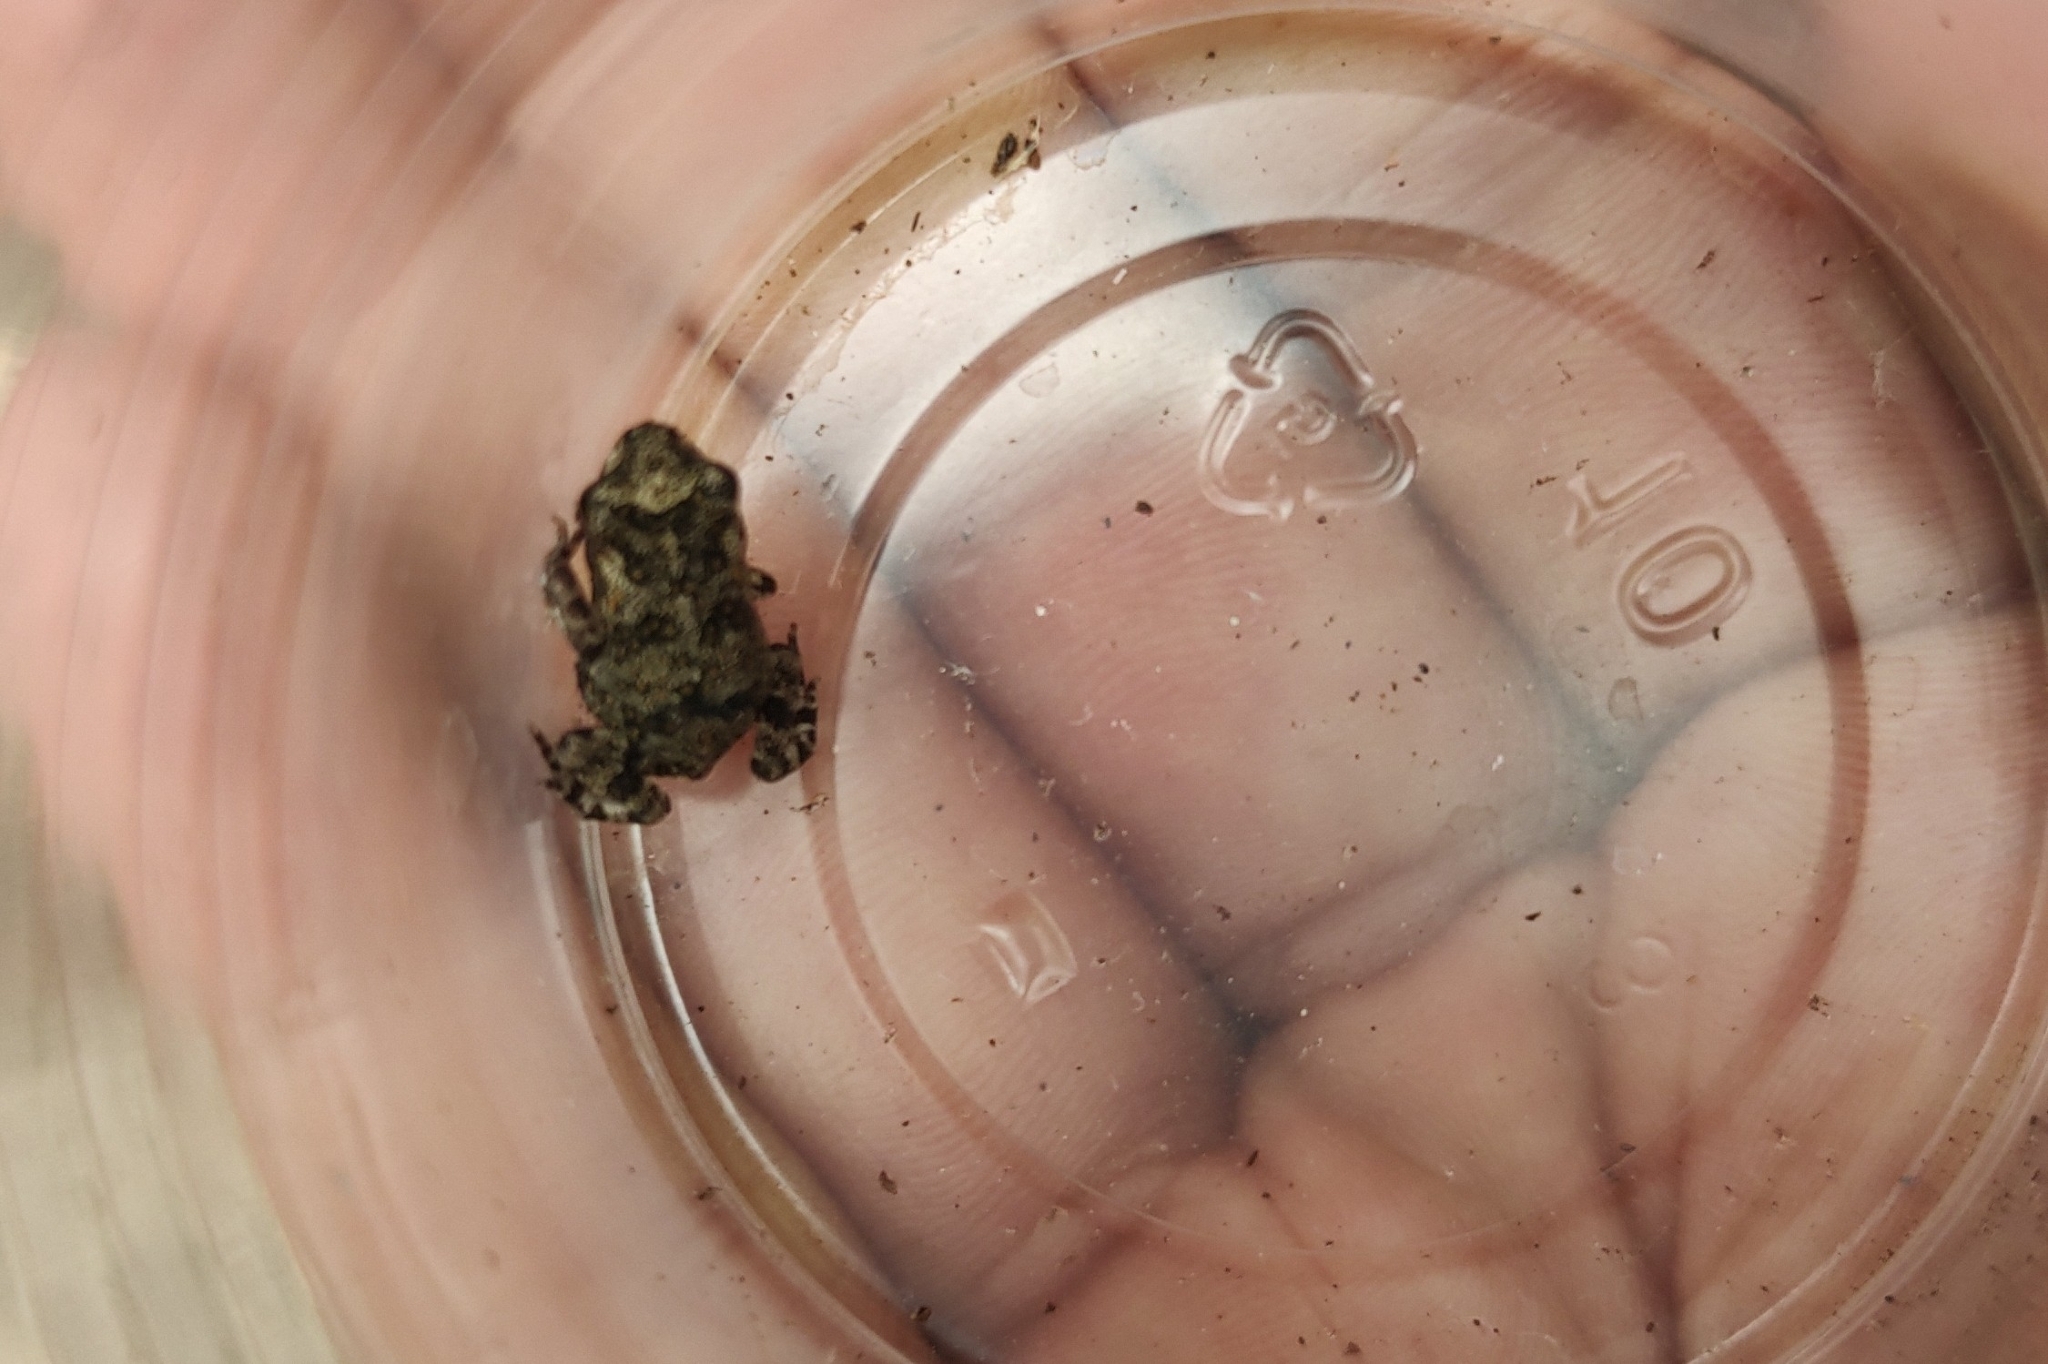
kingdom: Animalia
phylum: Chordata
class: Amphibia
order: Anura
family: Bufonidae
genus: Incilius
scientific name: Incilius valliceps
